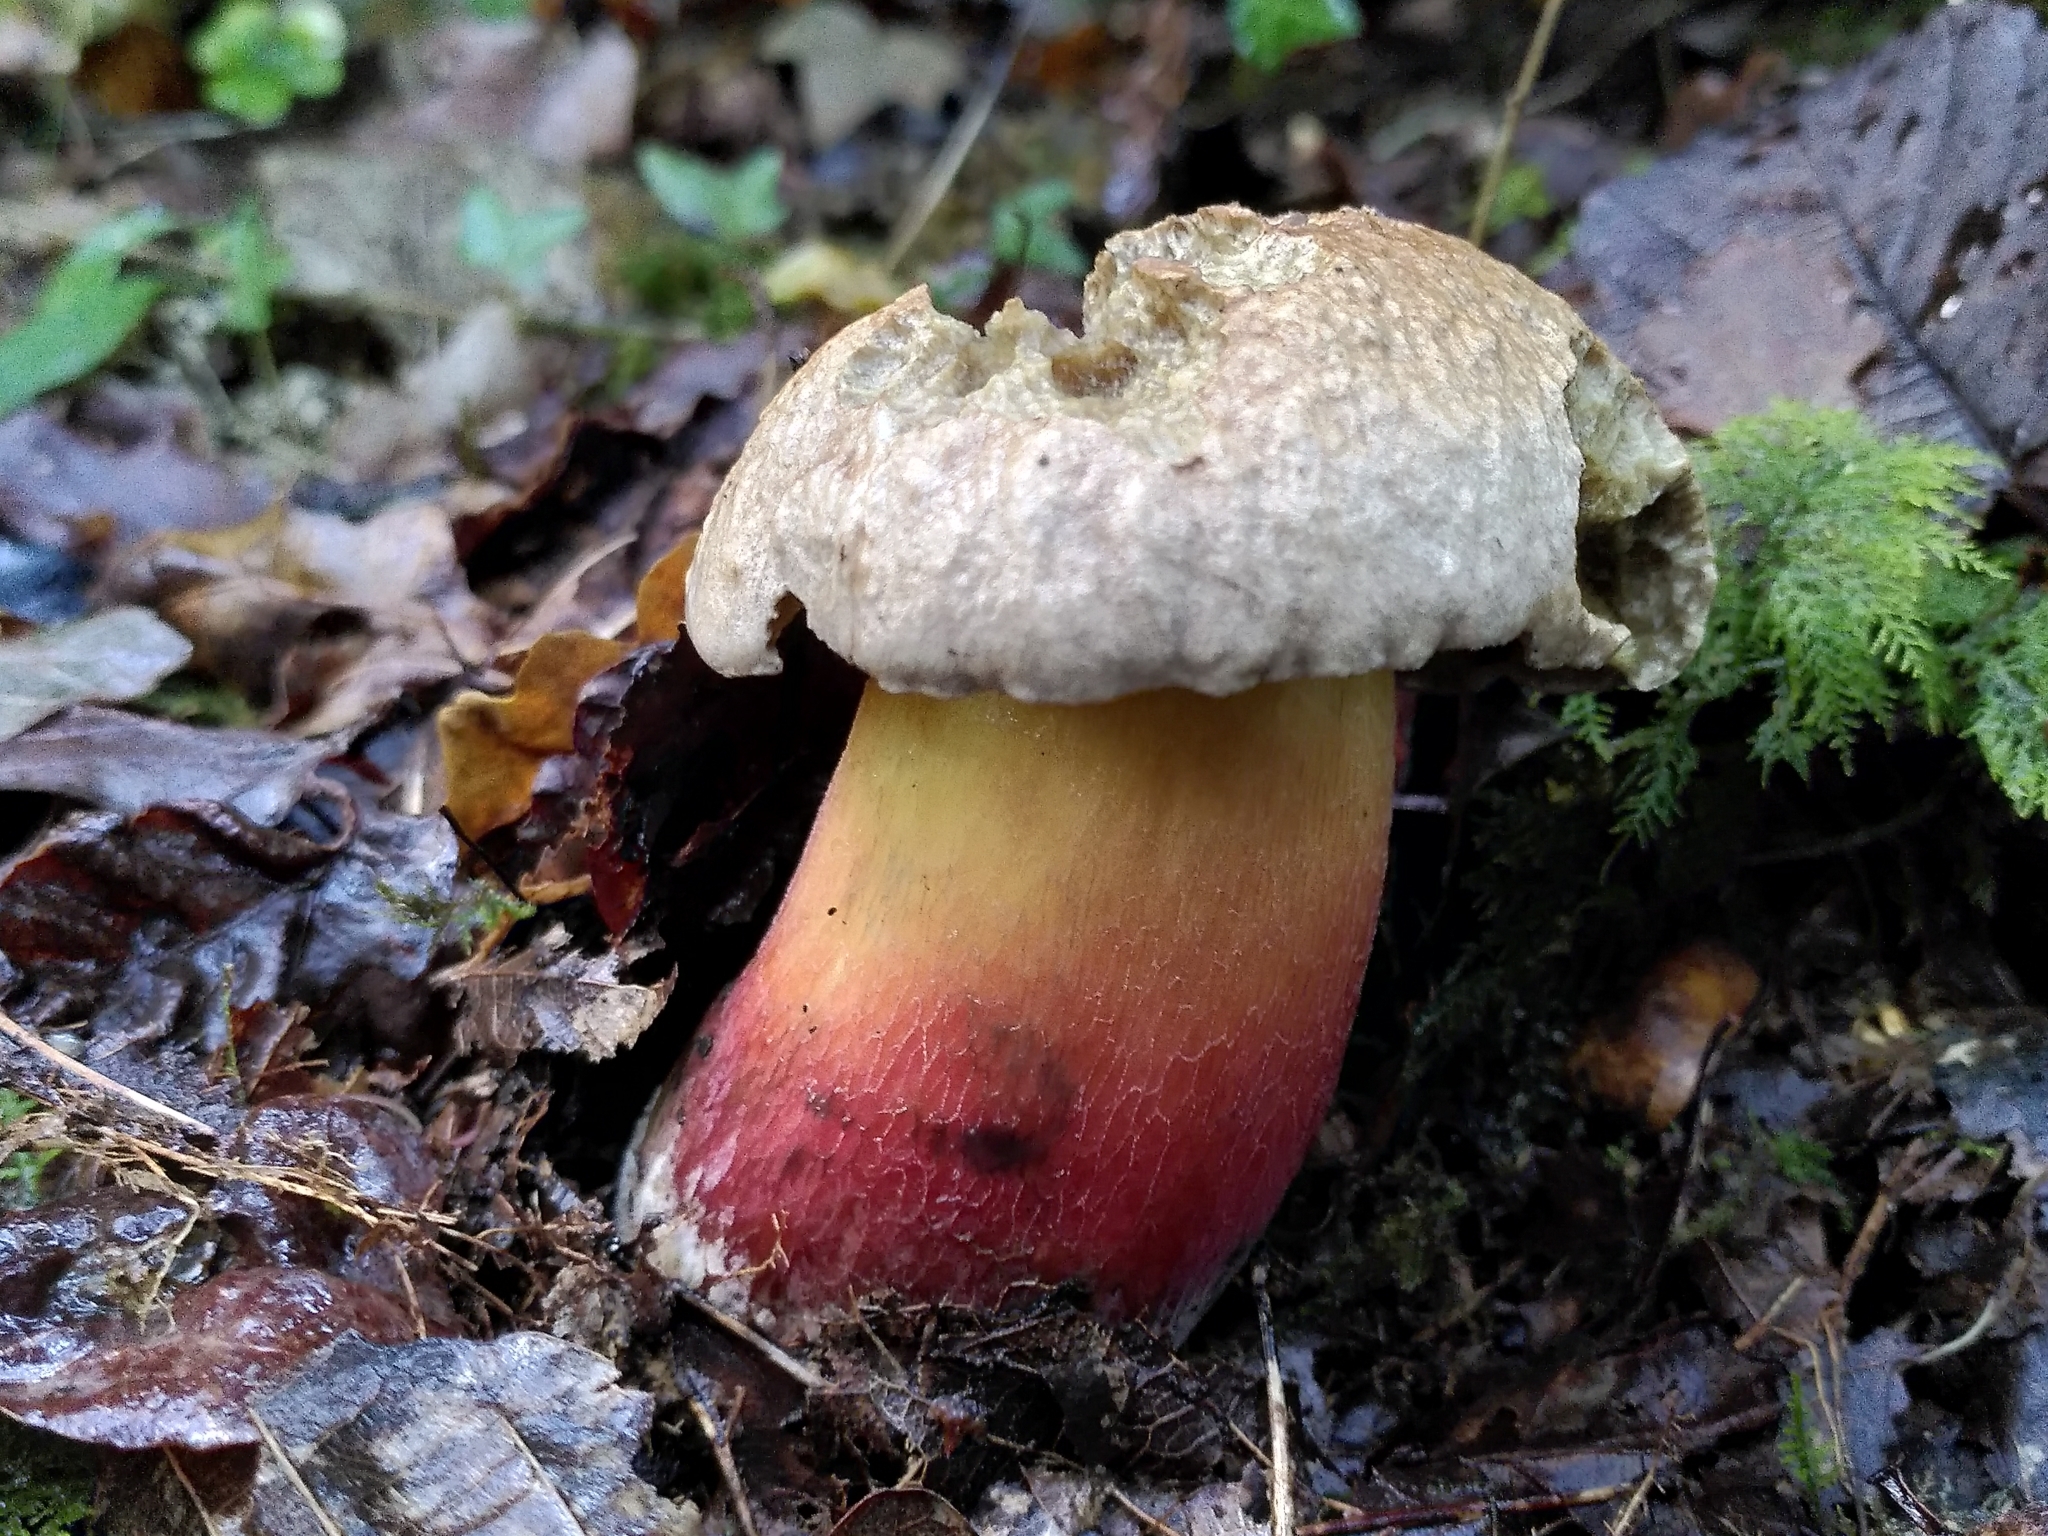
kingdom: Fungi
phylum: Basidiomycota
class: Agaricomycetes
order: Boletales
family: Boletaceae
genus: Caloboletus
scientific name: Caloboletus calopus
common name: Bitter beech bolete
